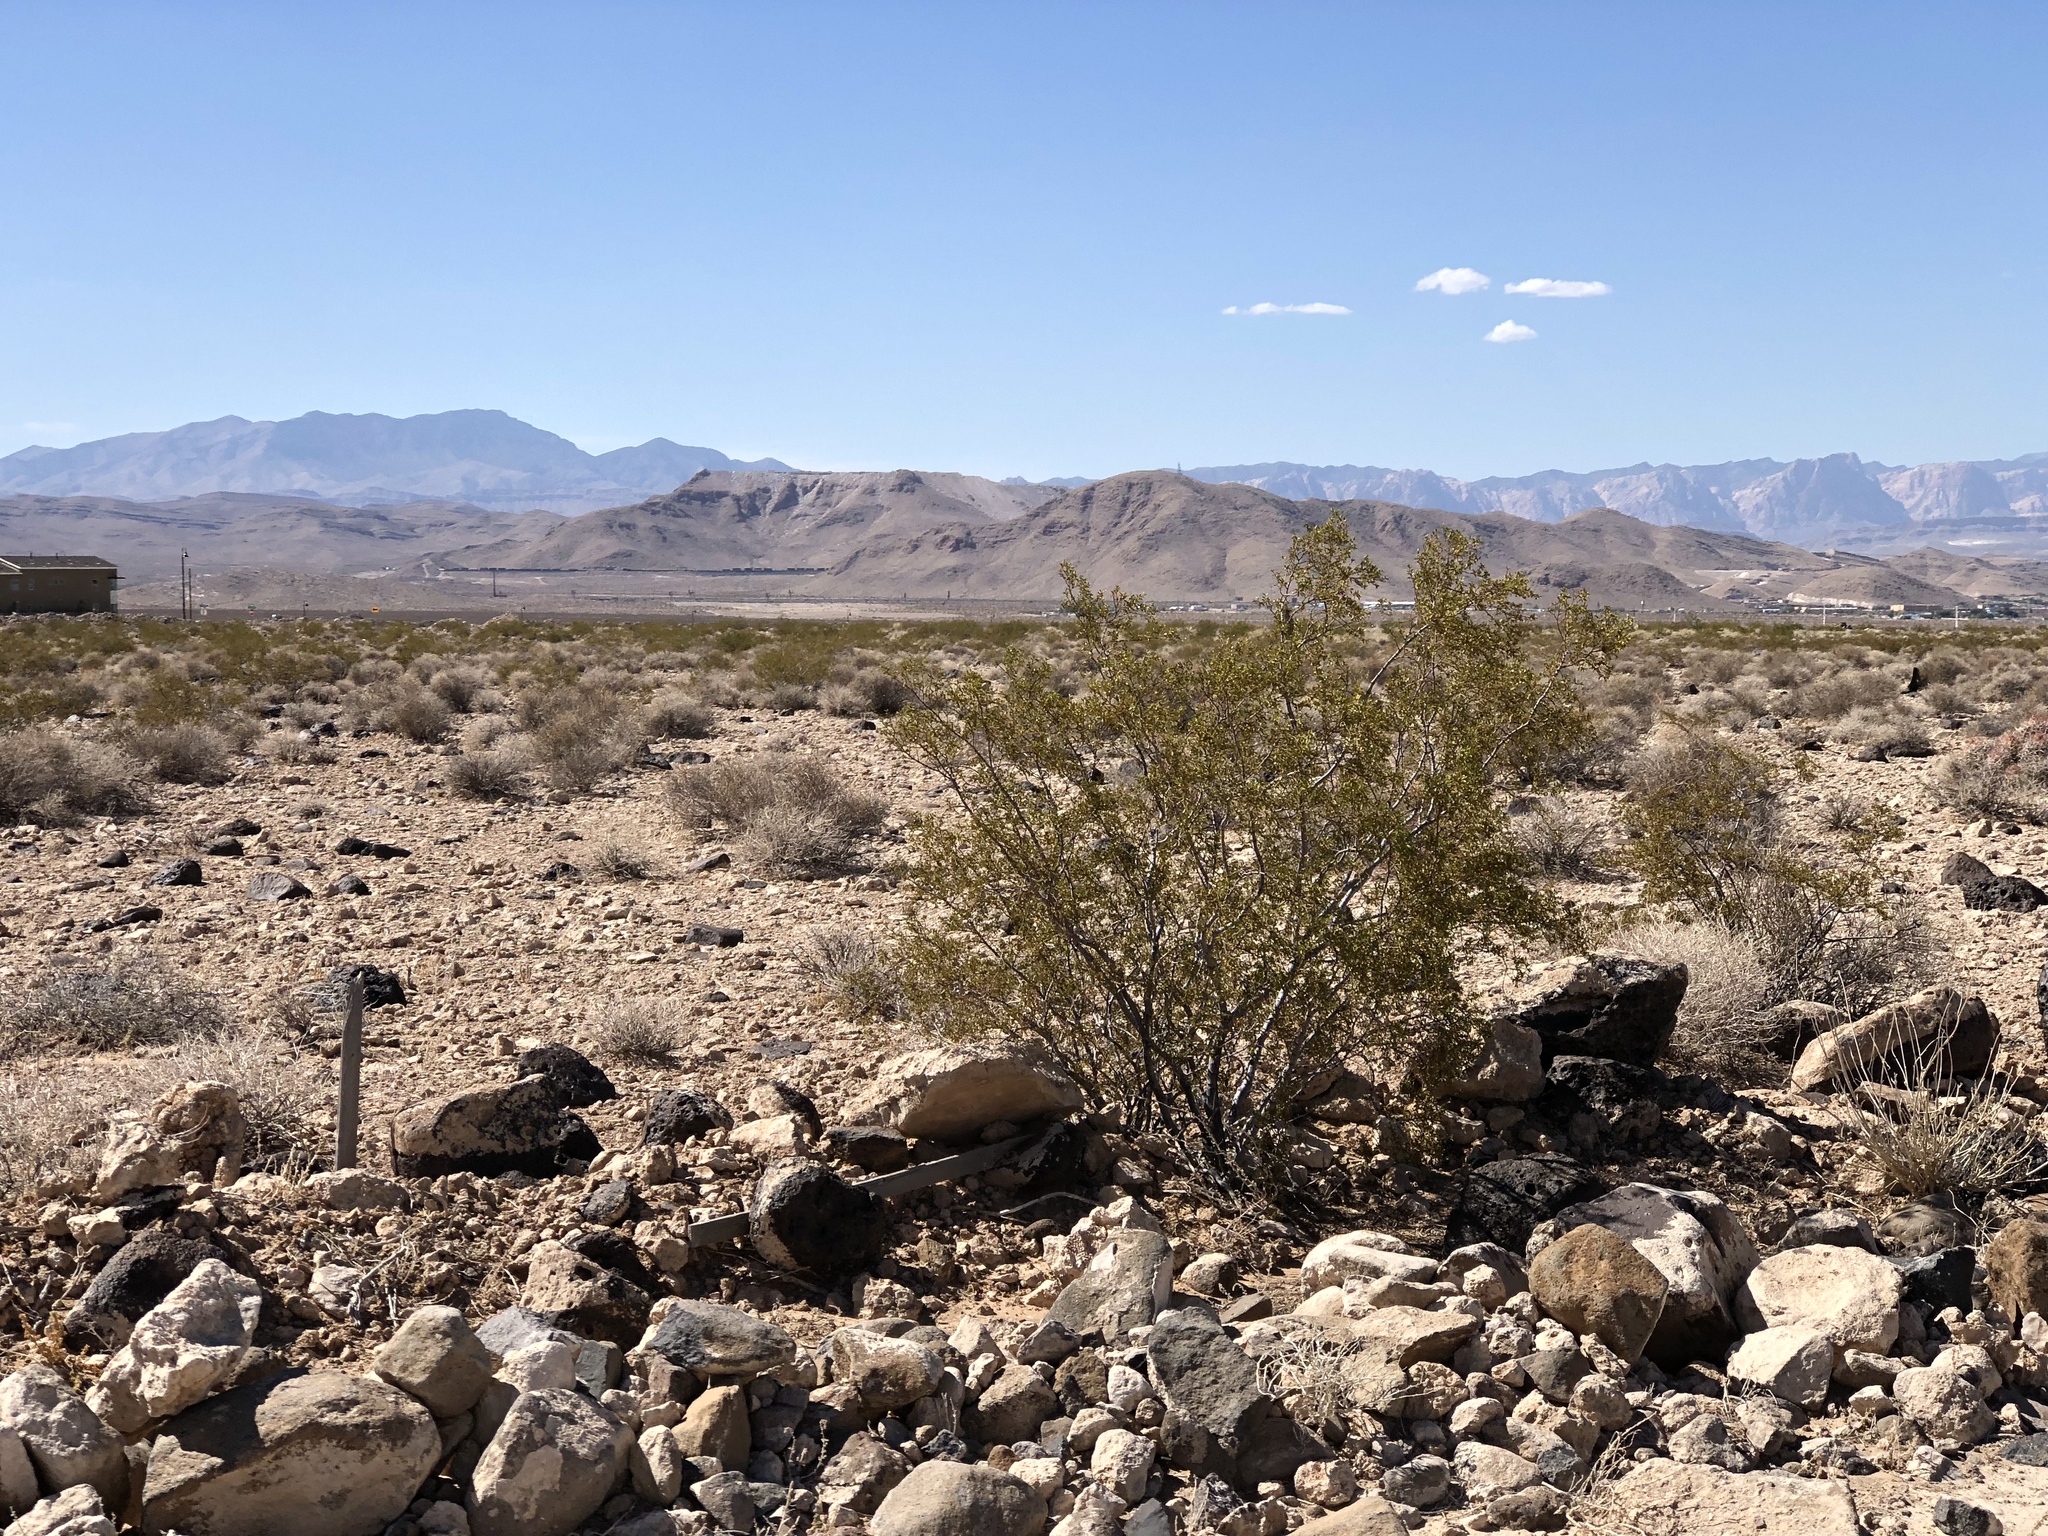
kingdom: Plantae
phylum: Tracheophyta
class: Magnoliopsida
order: Zygophyllales
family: Zygophyllaceae
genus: Larrea
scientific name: Larrea tridentata
